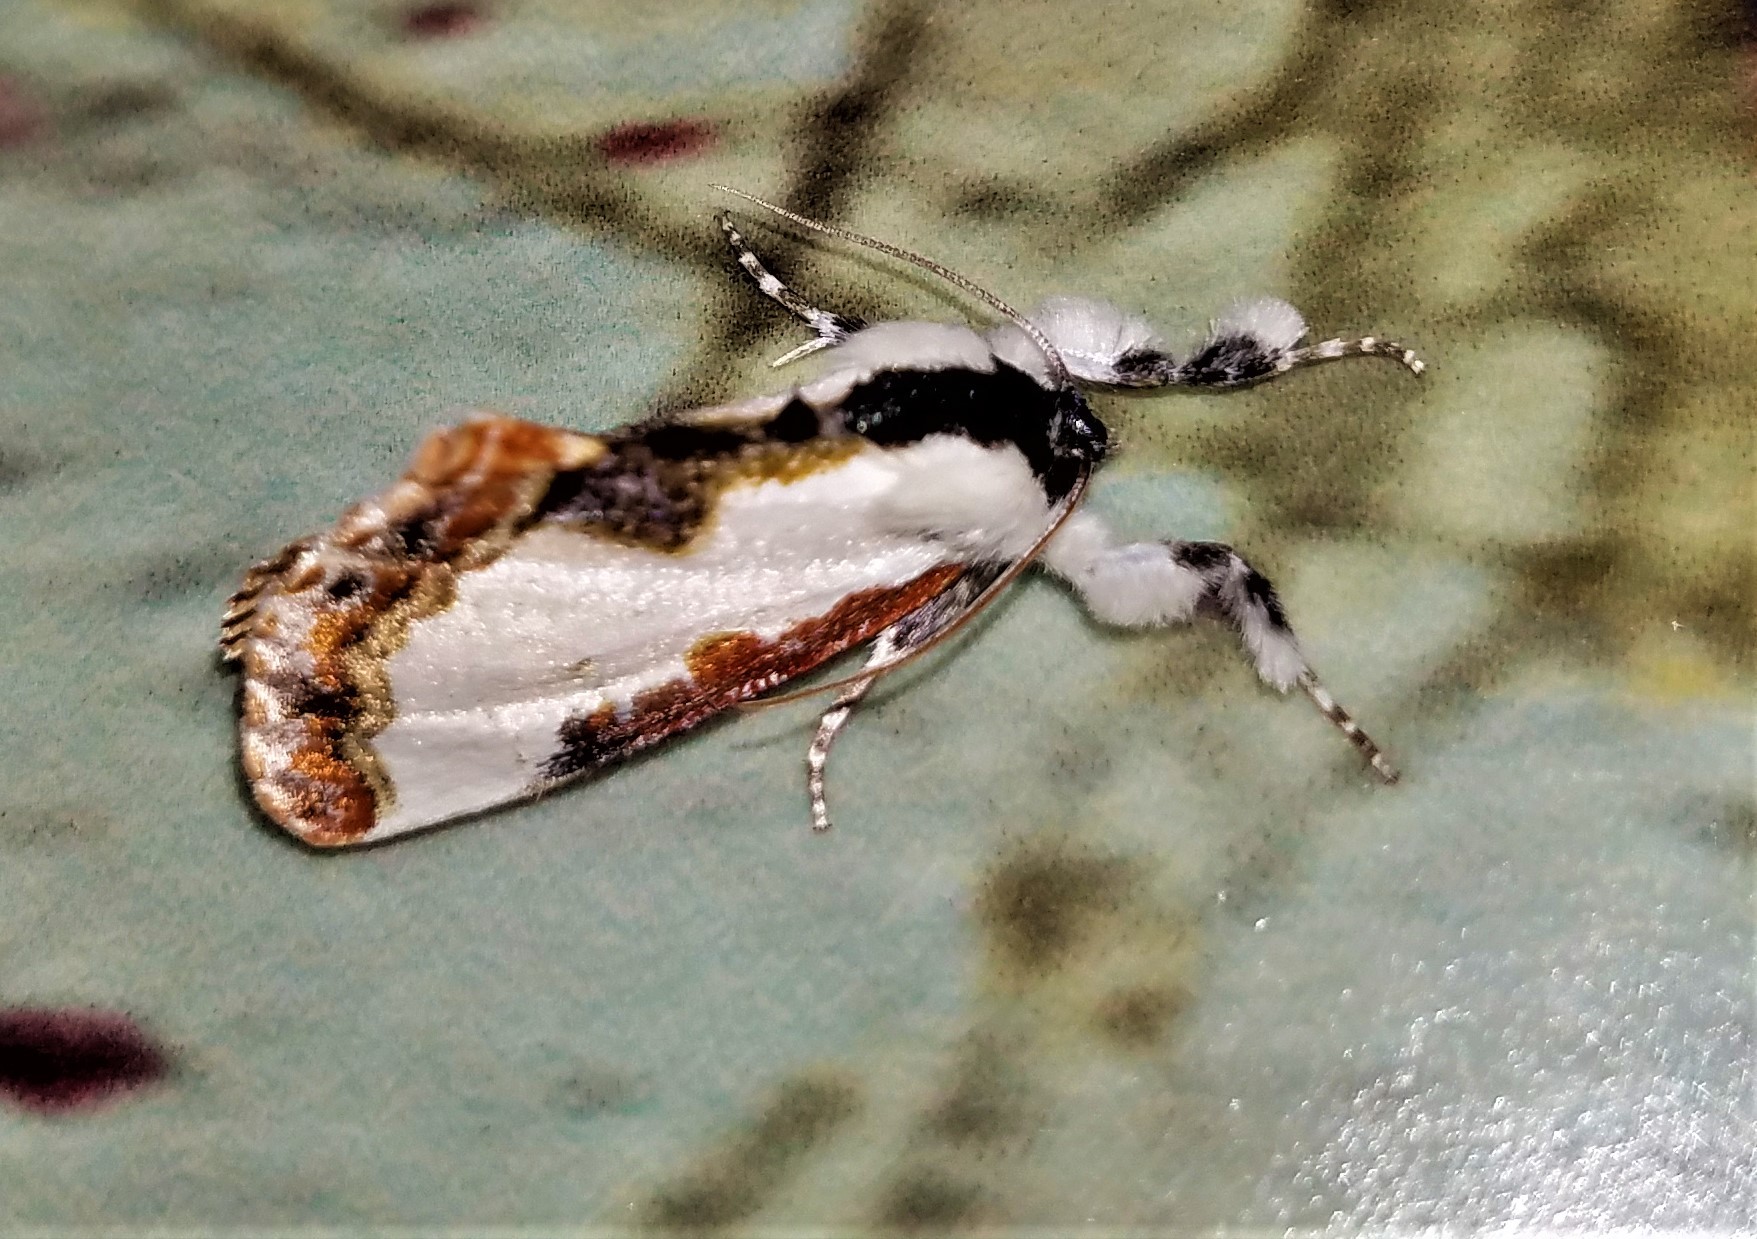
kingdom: Animalia
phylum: Arthropoda
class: Insecta
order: Lepidoptera
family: Noctuidae
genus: Eudryas
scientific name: Eudryas unio
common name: Pearly wood-nymph
